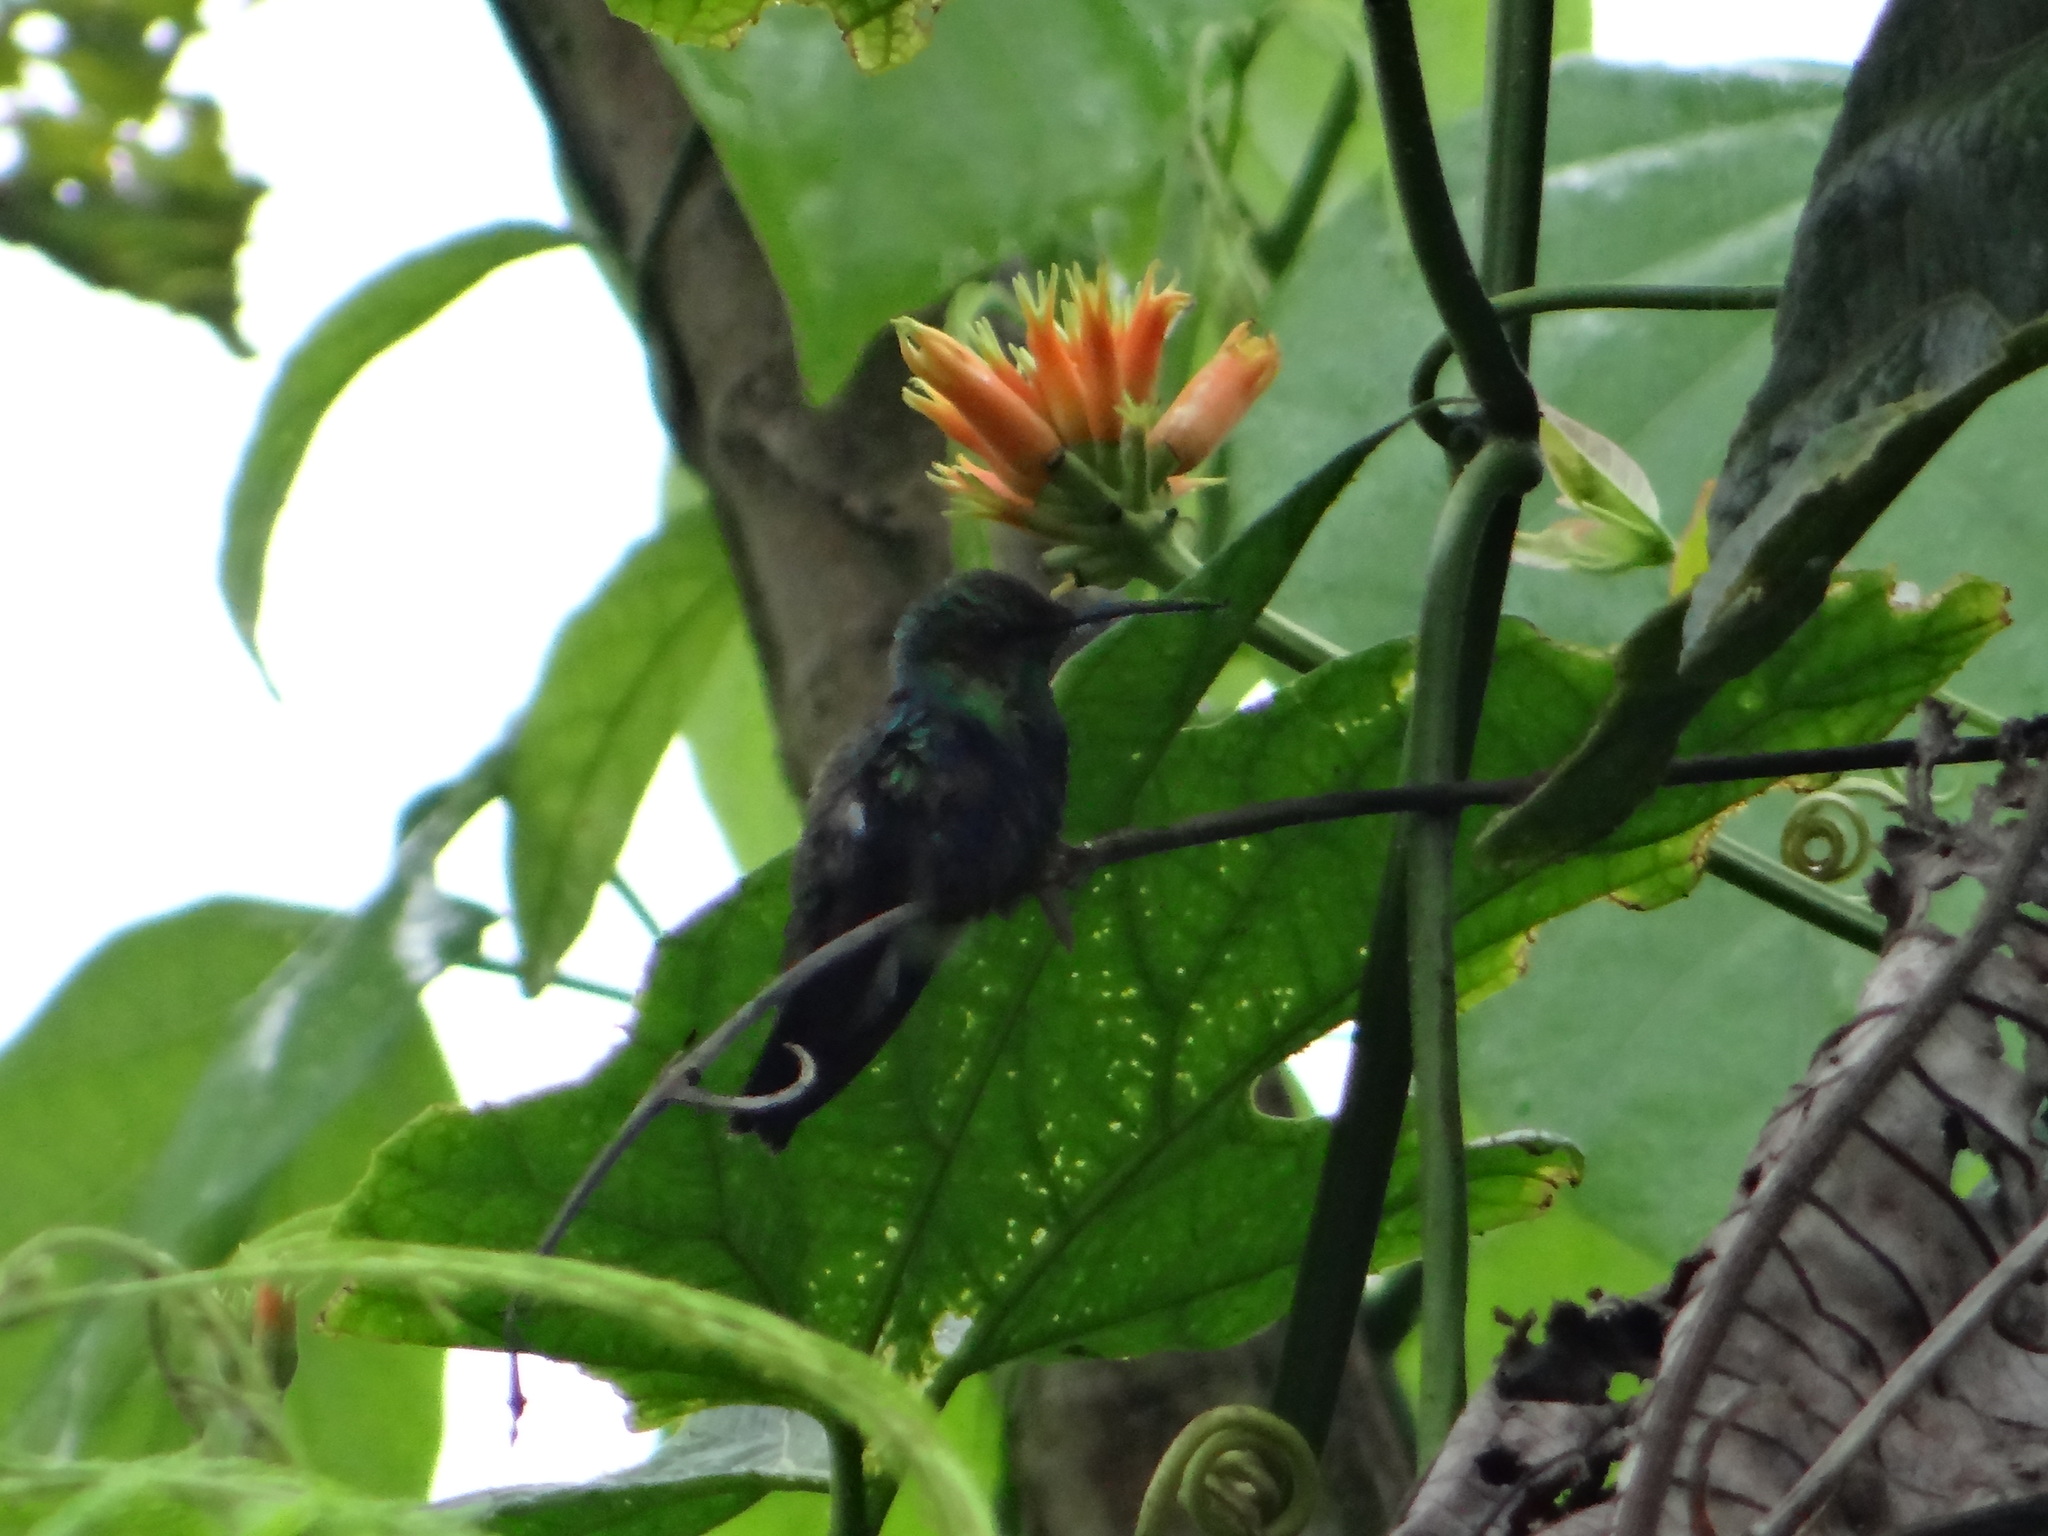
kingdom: Animalia
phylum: Chordata
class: Aves
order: Apodiformes
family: Trochilidae
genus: Thalurania
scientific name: Thalurania furcata
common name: Fork-tailed woodnymph
